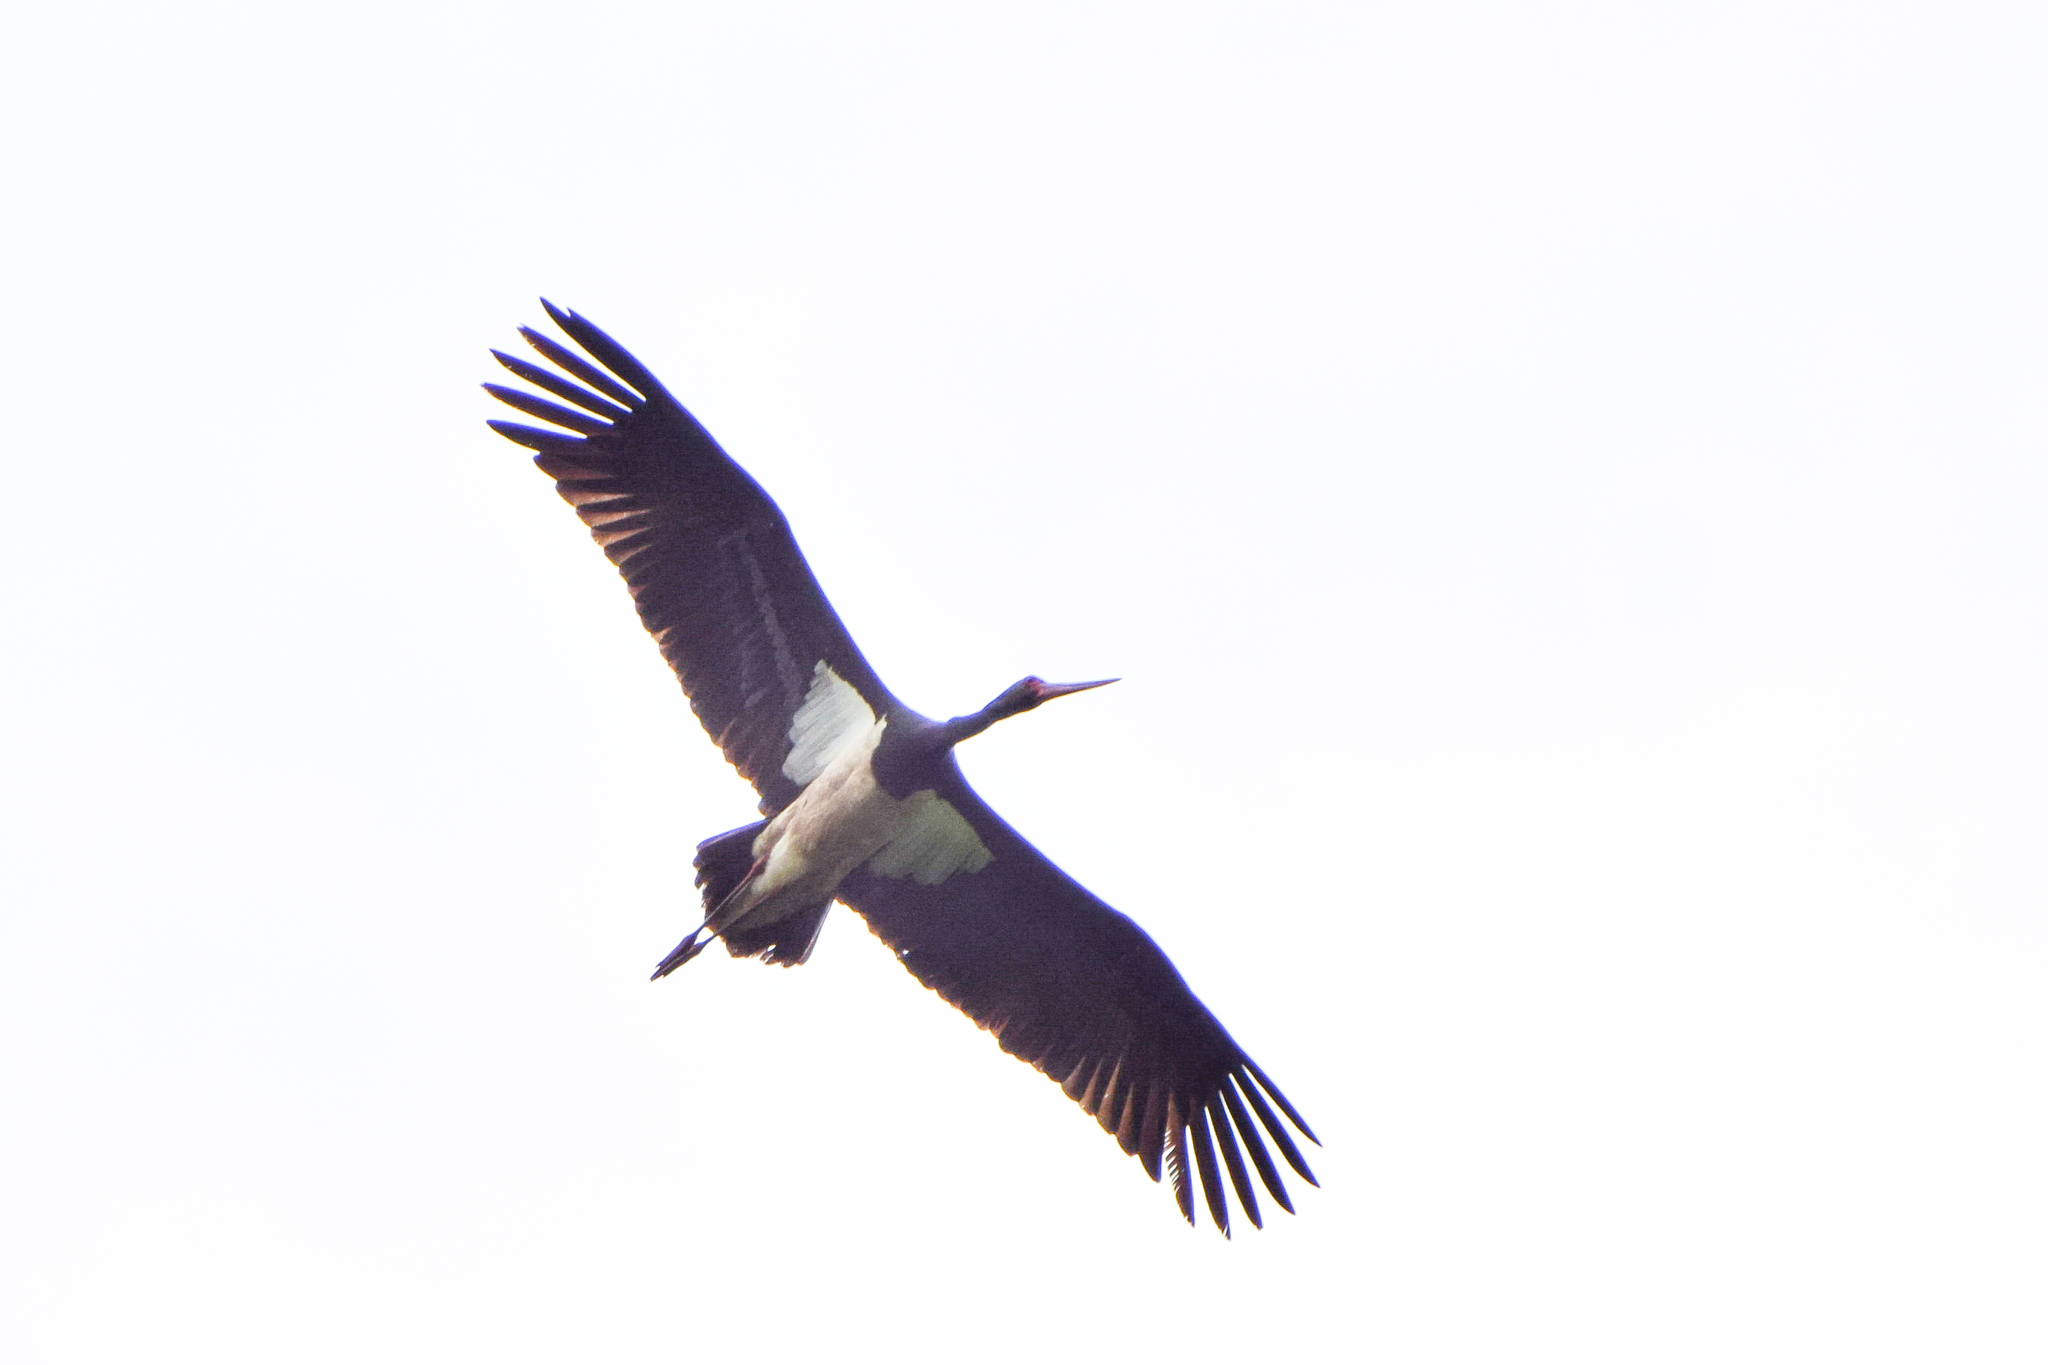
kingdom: Animalia
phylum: Chordata
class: Aves
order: Ciconiiformes
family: Ciconiidae
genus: Ciconia
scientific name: Ciconia nigra
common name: Black stork
